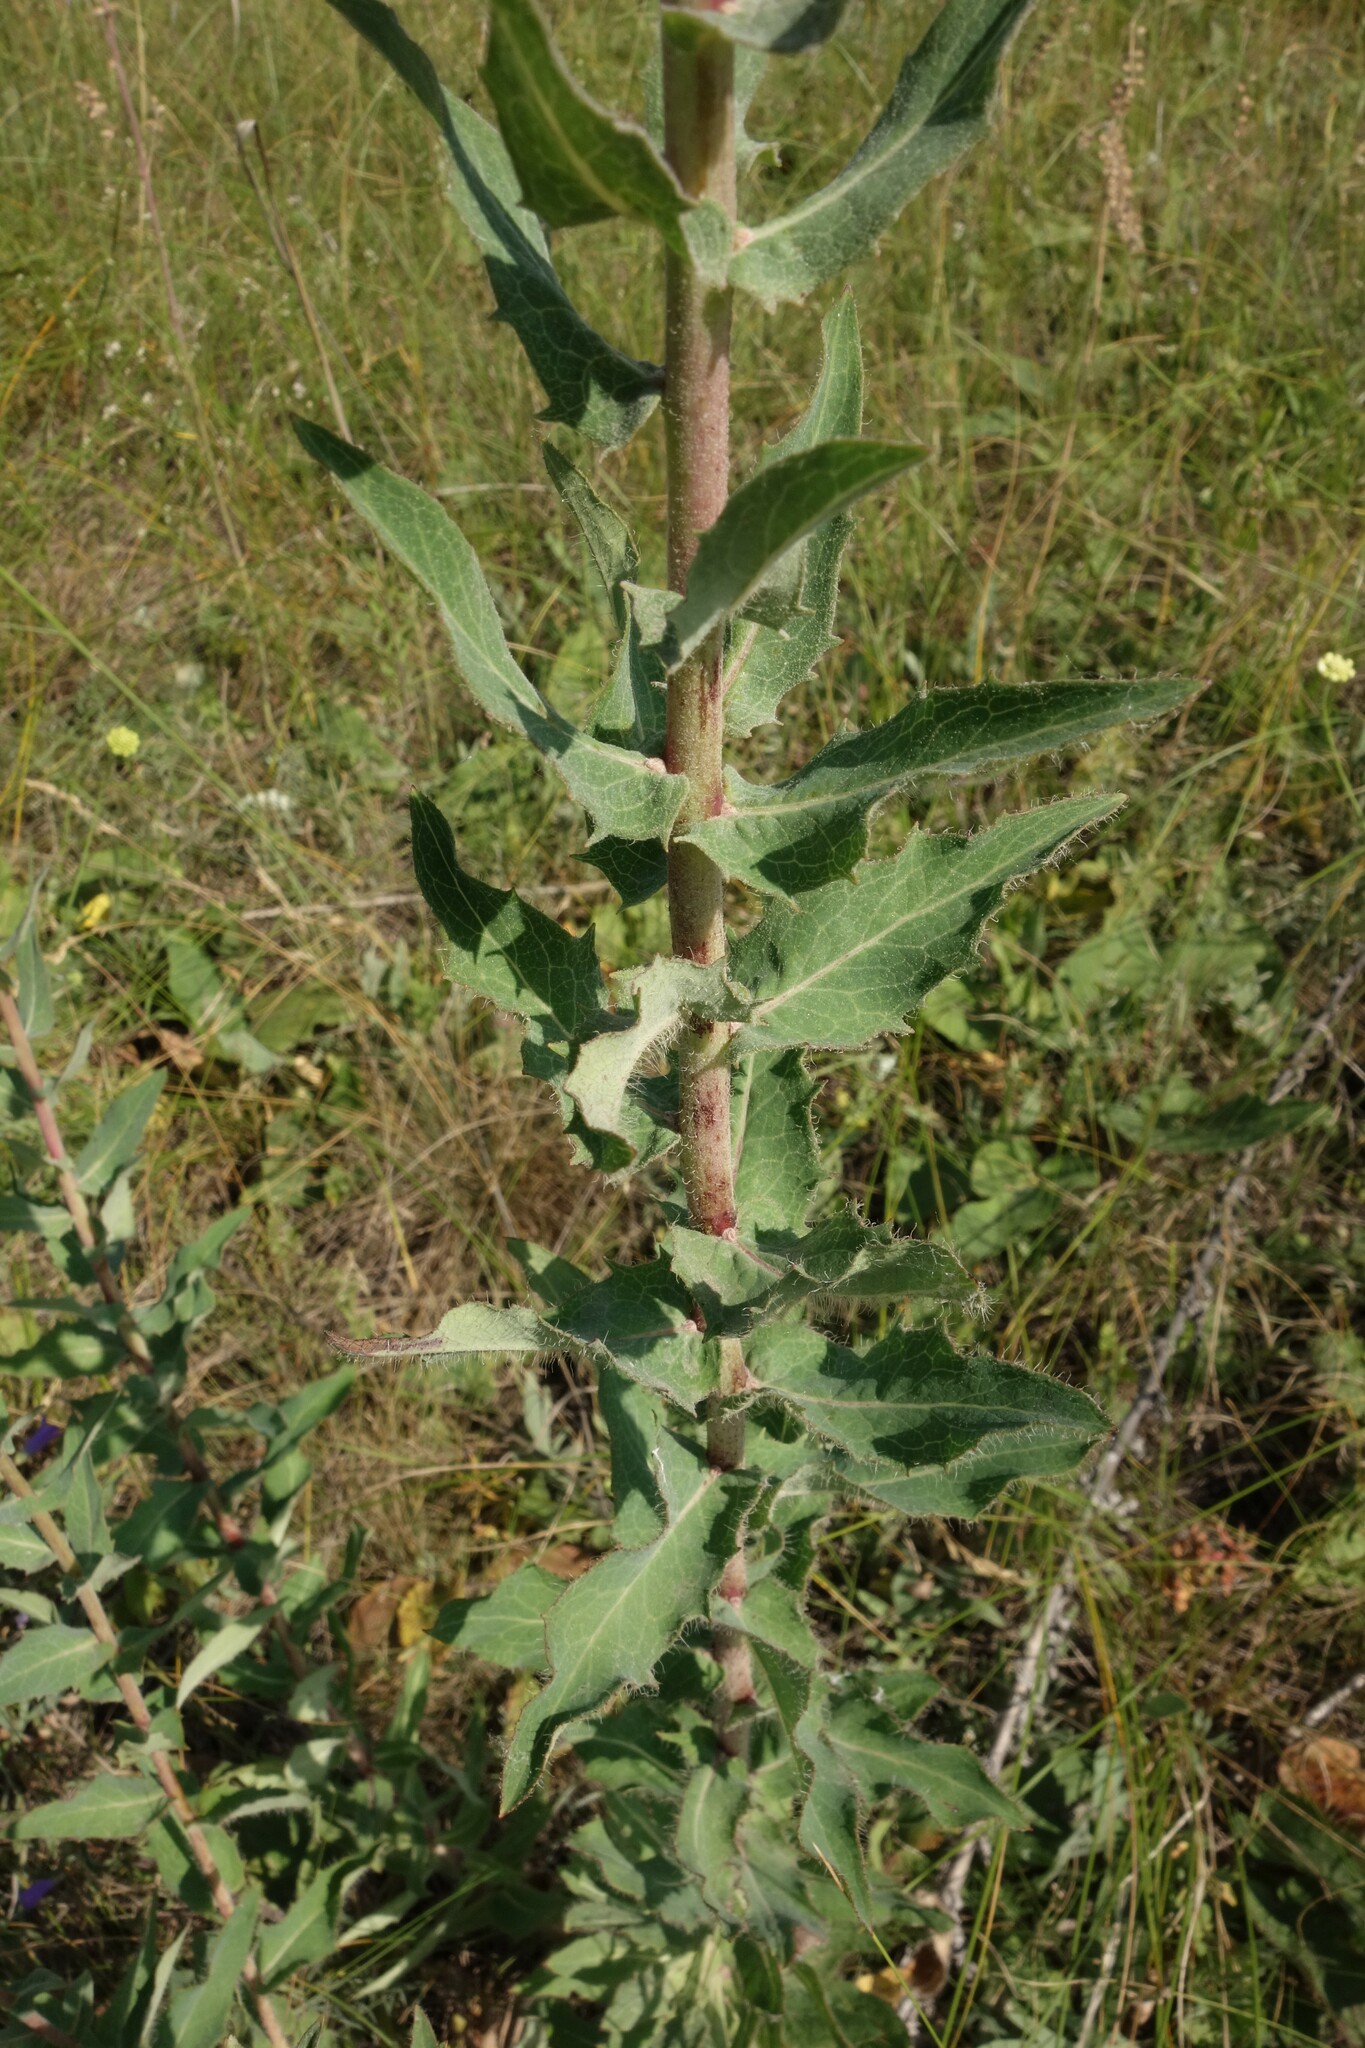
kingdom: Plantae
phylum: Tracheophyta
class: Magnoliopsida
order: Asterales
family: Asteraceae
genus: Hieracium
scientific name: Hieracium virosum
